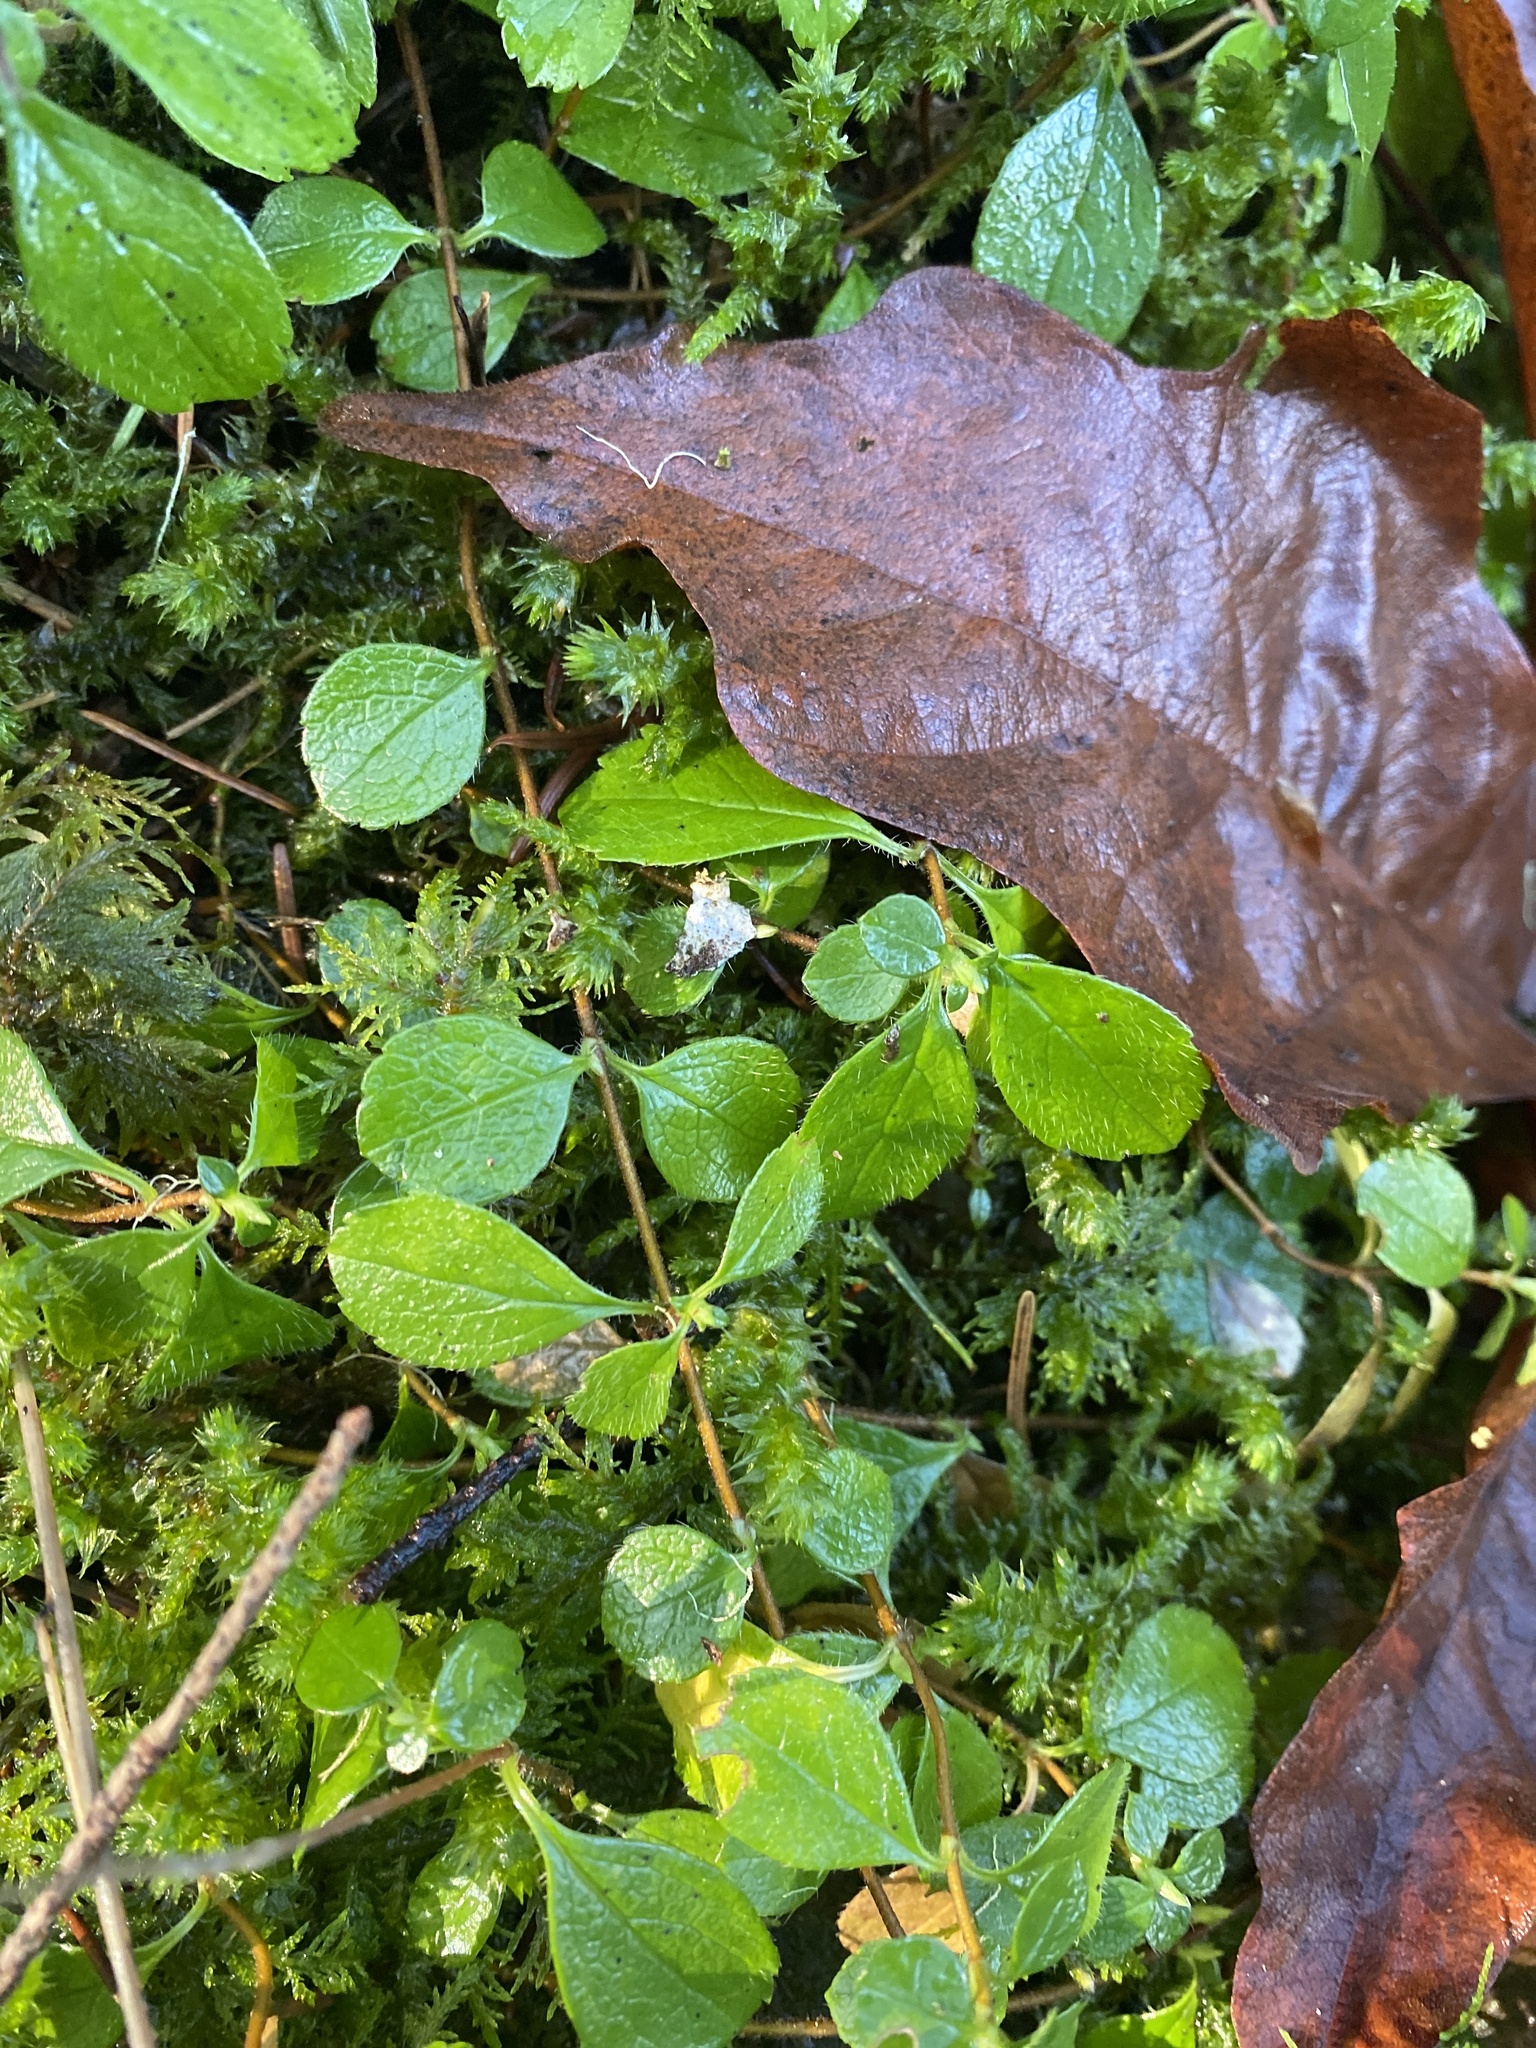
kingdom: Plantae
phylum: Tracheophyta
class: Magnoliopsida
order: Dipsacales
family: Caprifoliaceae
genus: Linnaea
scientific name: Linnaea borealis
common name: Twinflower
